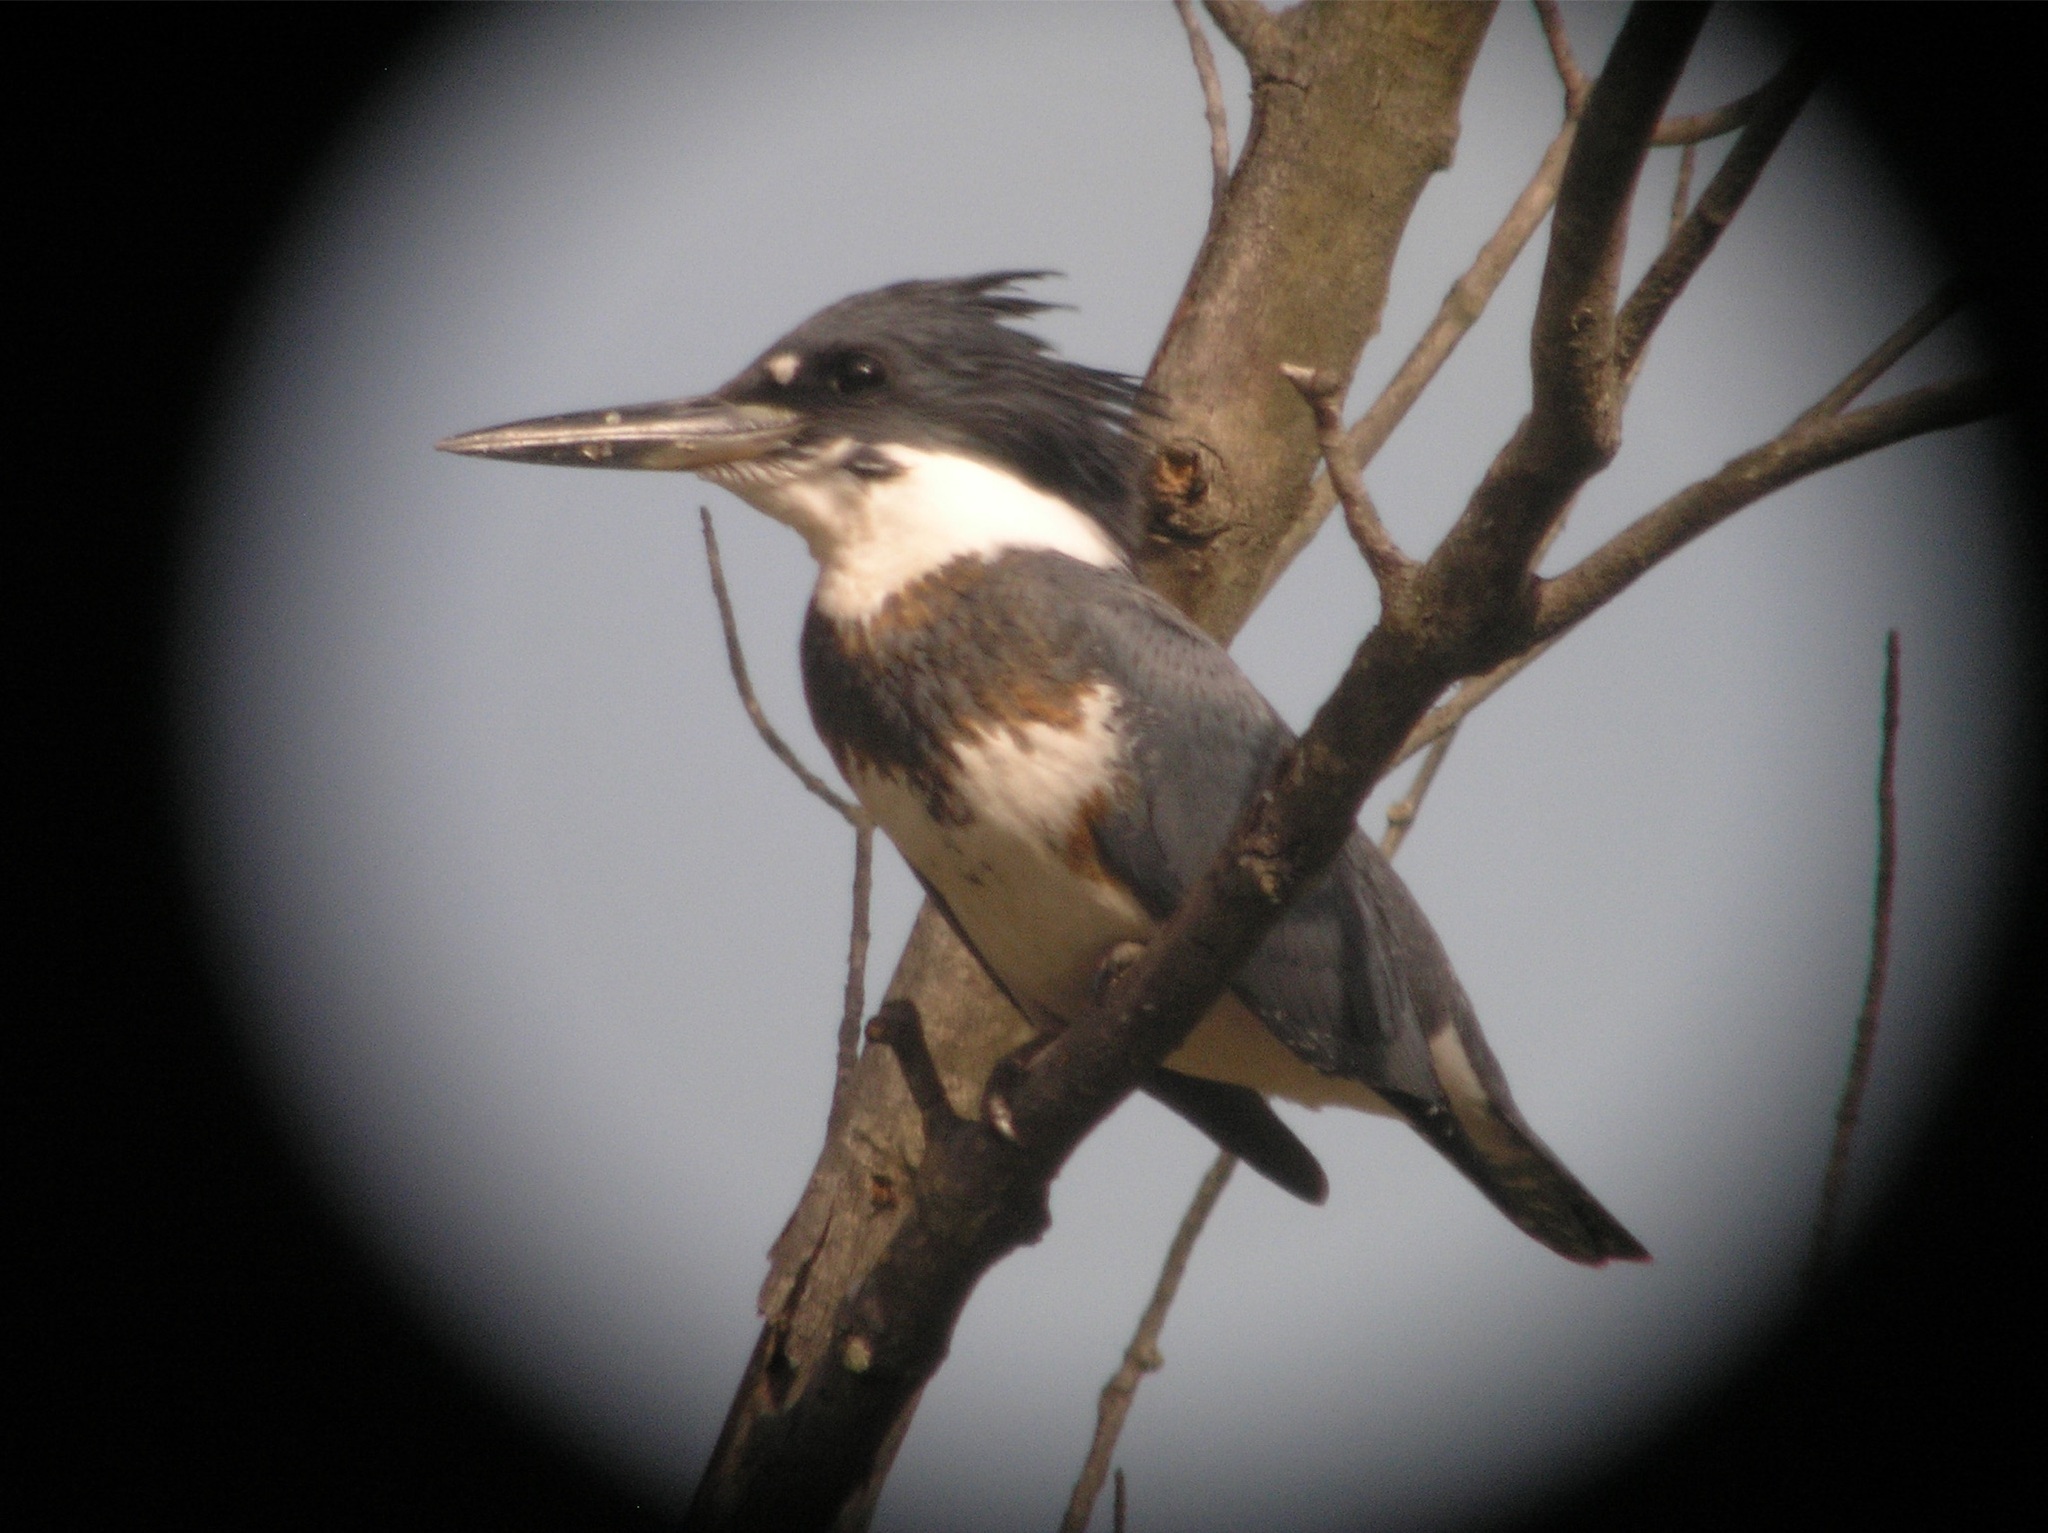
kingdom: Animalia
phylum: Chordata
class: Aves
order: Coraciiformes
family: Alcedinidae
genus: Megaceryle
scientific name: Megaceryle alcyon
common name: Belted kingfisher
